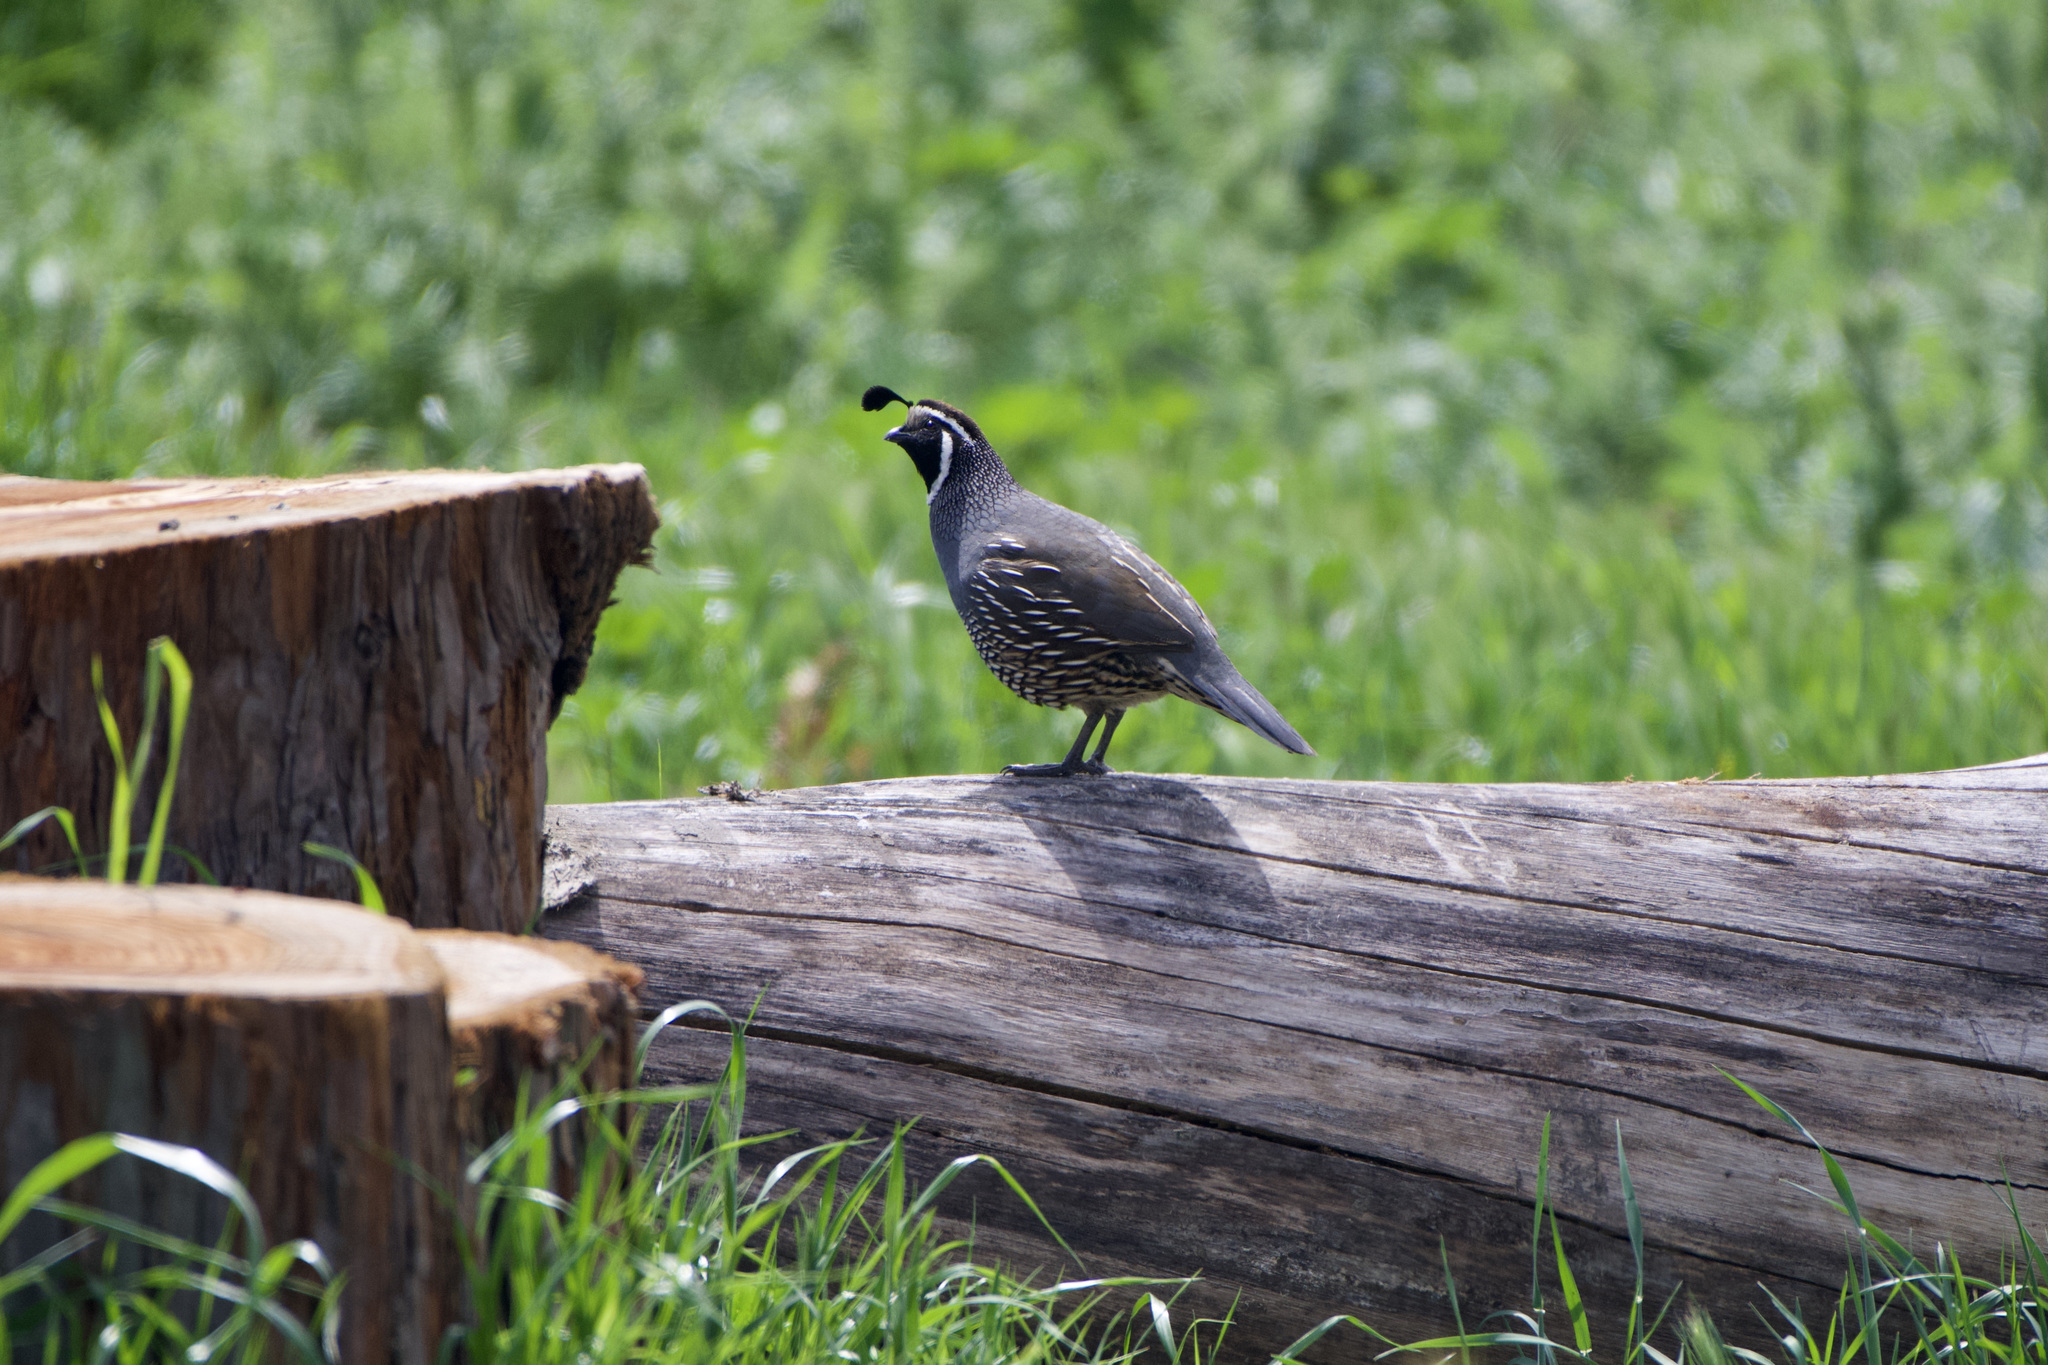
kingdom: Animalia
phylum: Chordata
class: Aves
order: Galliformes
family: Odontophoridae
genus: Callipepla
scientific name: Callipepla californica
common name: California quail
